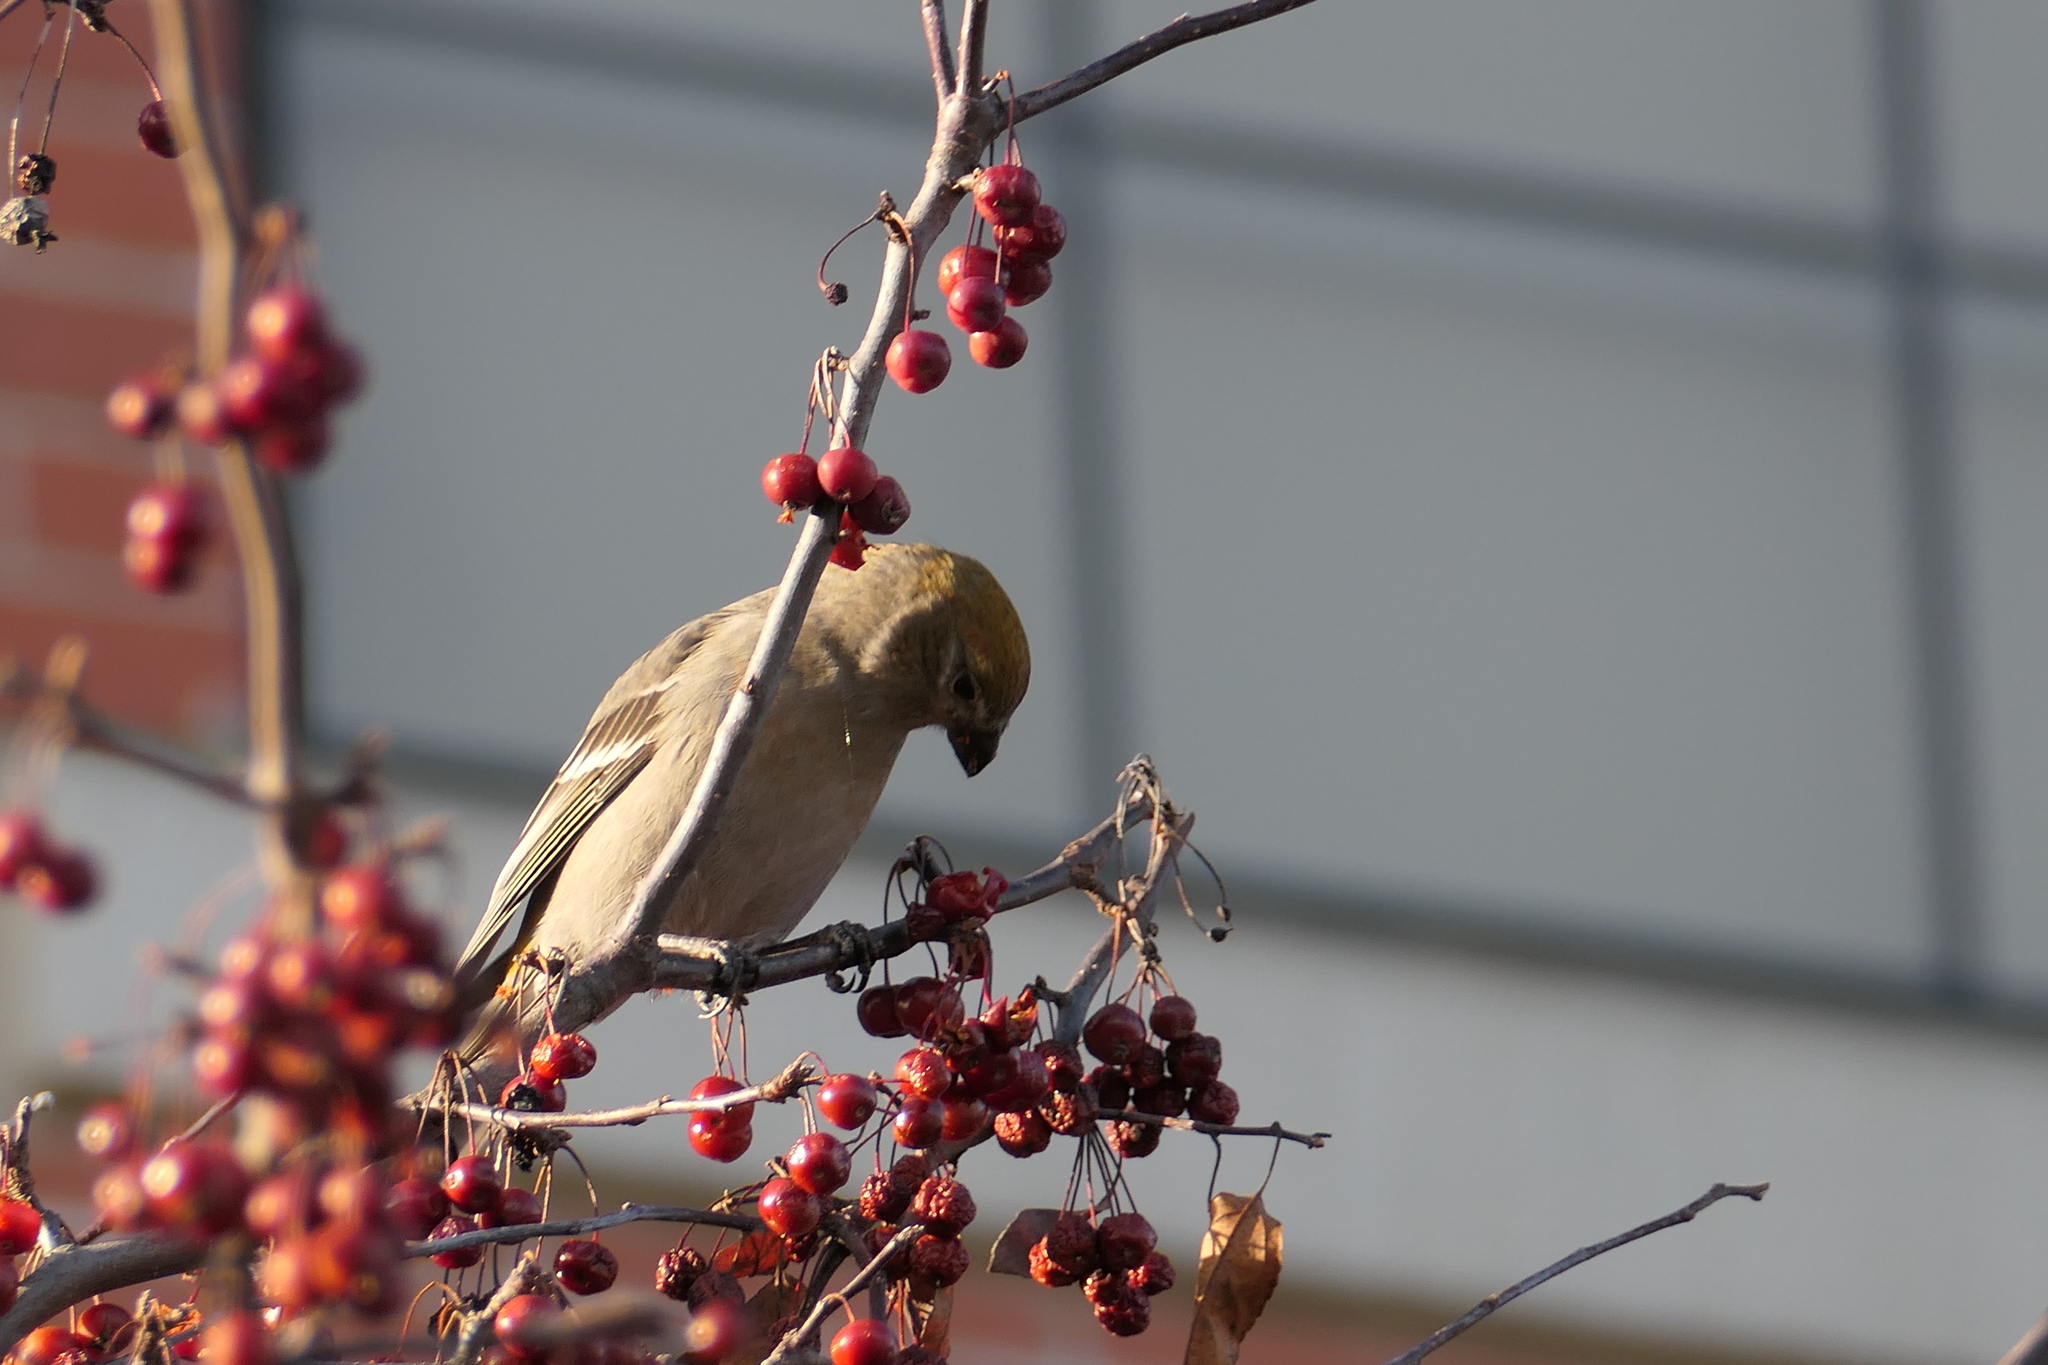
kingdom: Animalia
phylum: Chordata
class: Aves
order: Passeriformes
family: Fringillidae
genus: Pinicola
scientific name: Pinicola enucleator
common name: Pine grosbeak
